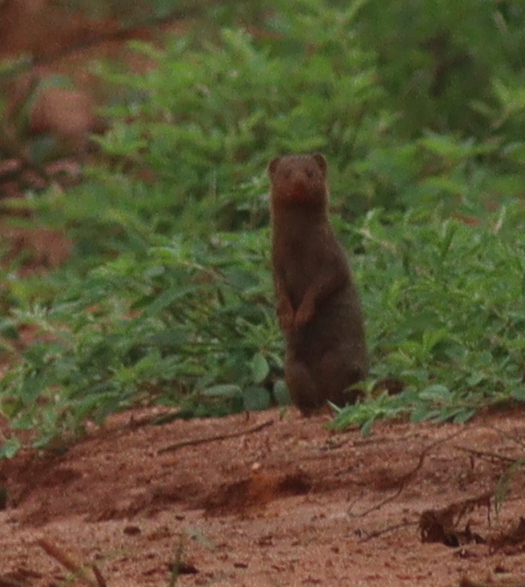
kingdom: Animalia
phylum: Chordata
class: Mammalia
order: Carnivora
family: Herpestidae
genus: Helogale
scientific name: Helogale parvula
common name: Common dwarf mongoose
